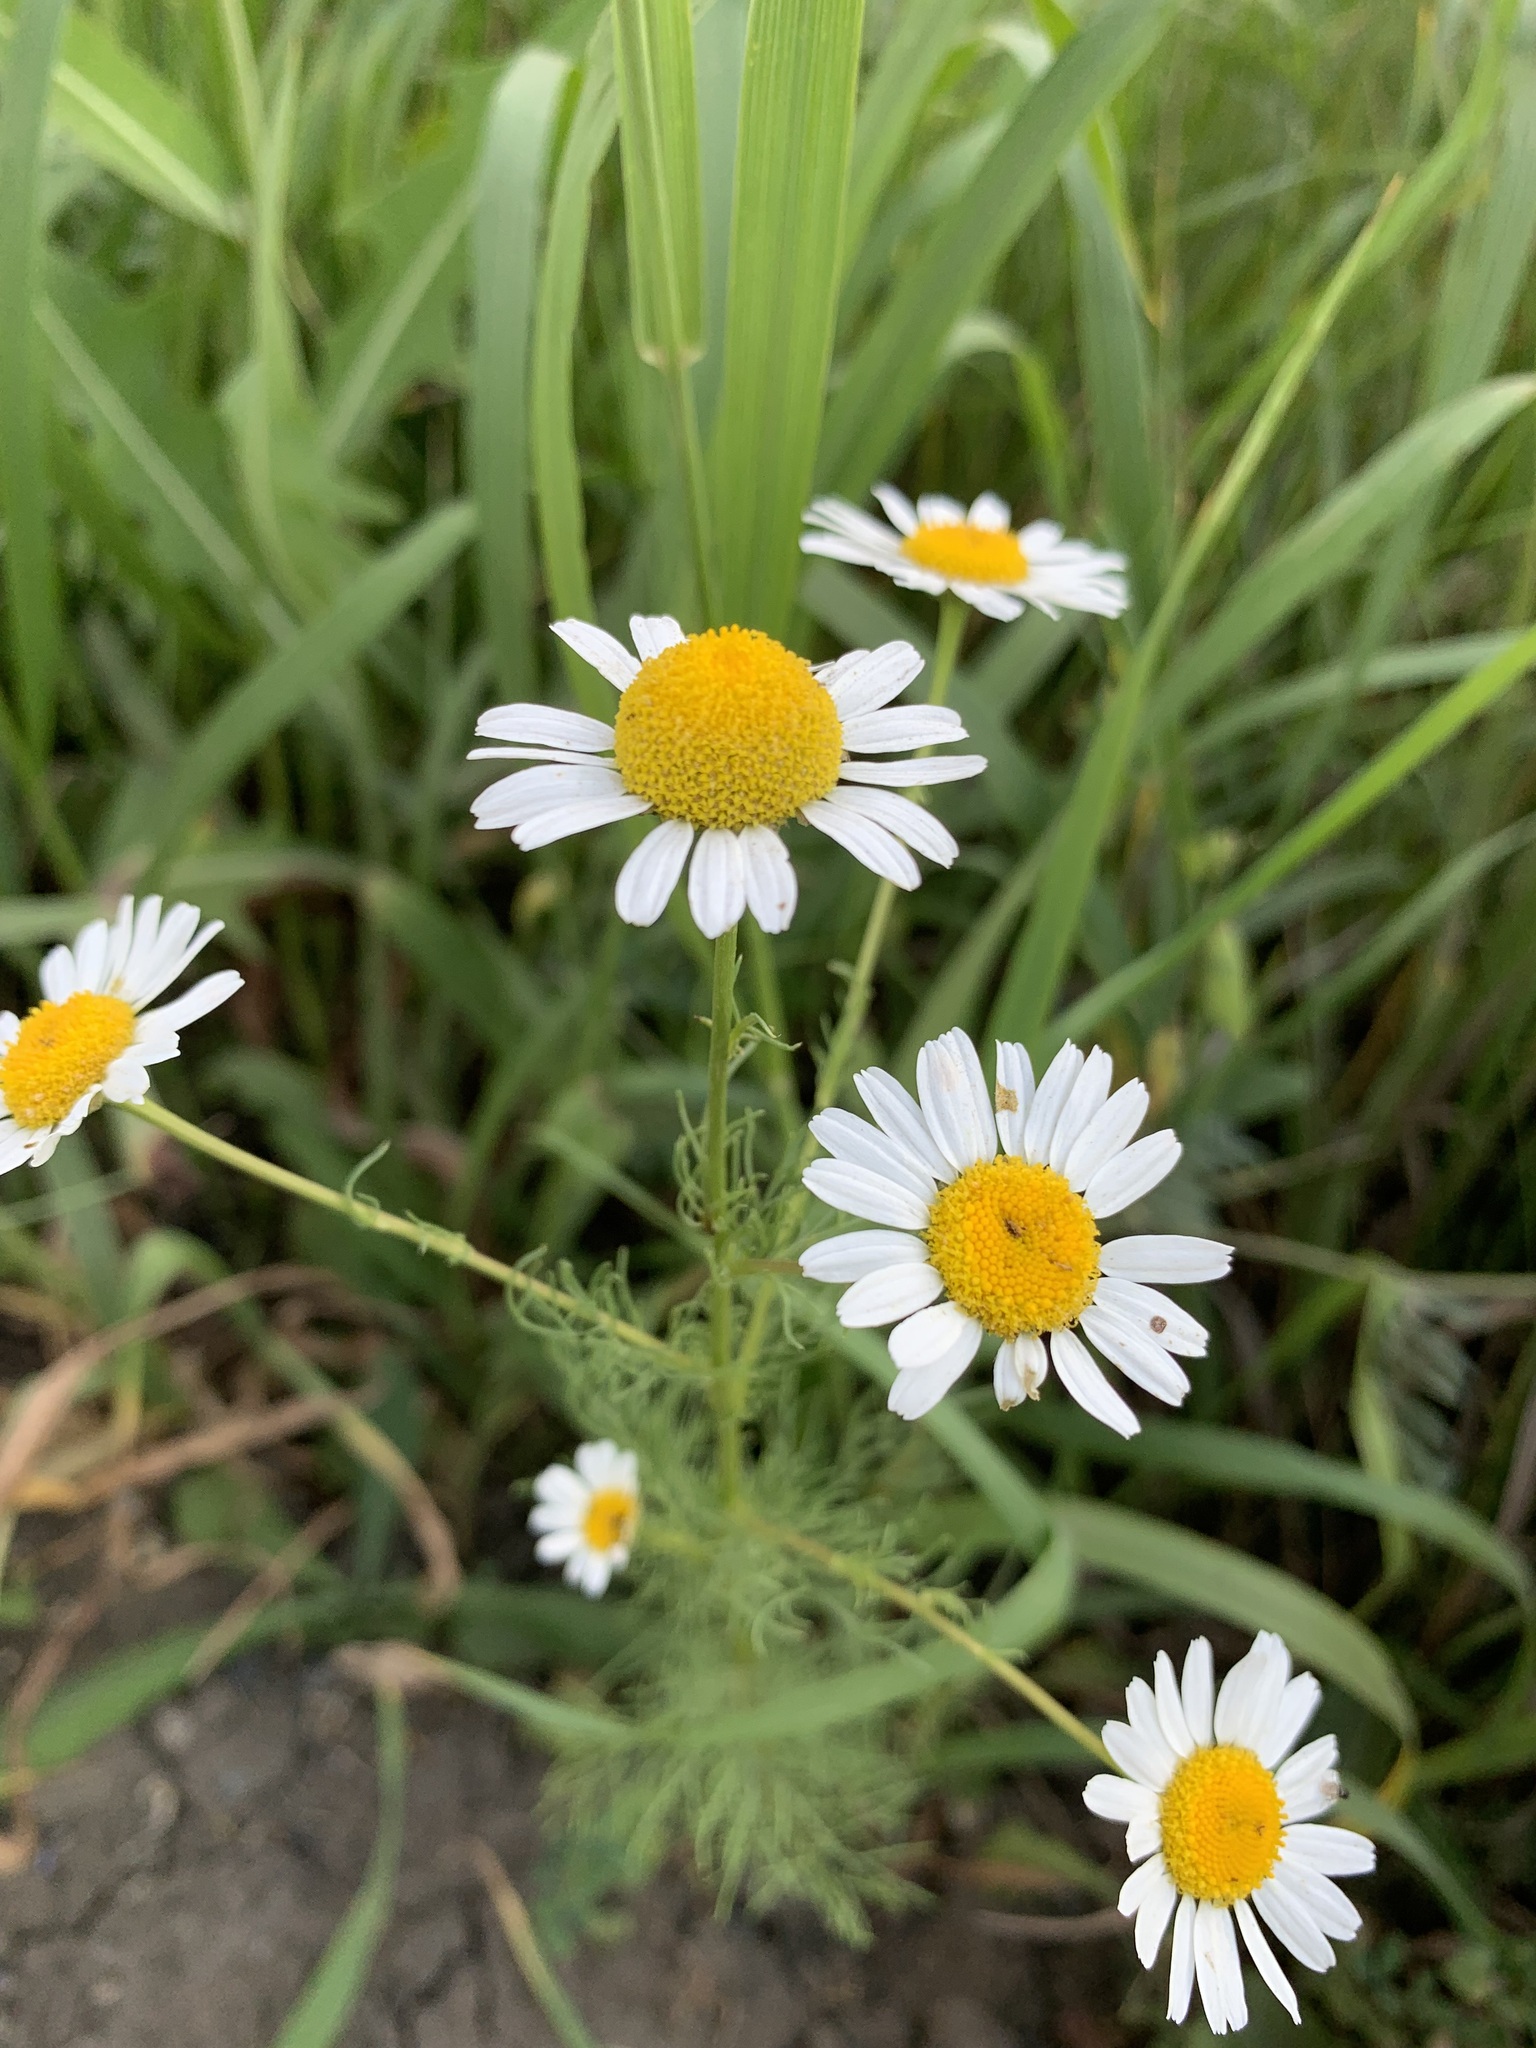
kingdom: Plantae
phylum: Tracheophyta
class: Magnoliopsida
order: Asterales
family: Asteraceae
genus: Tripleurospermum
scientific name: Tripleurospermum inodorum
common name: Scentless mayweed
